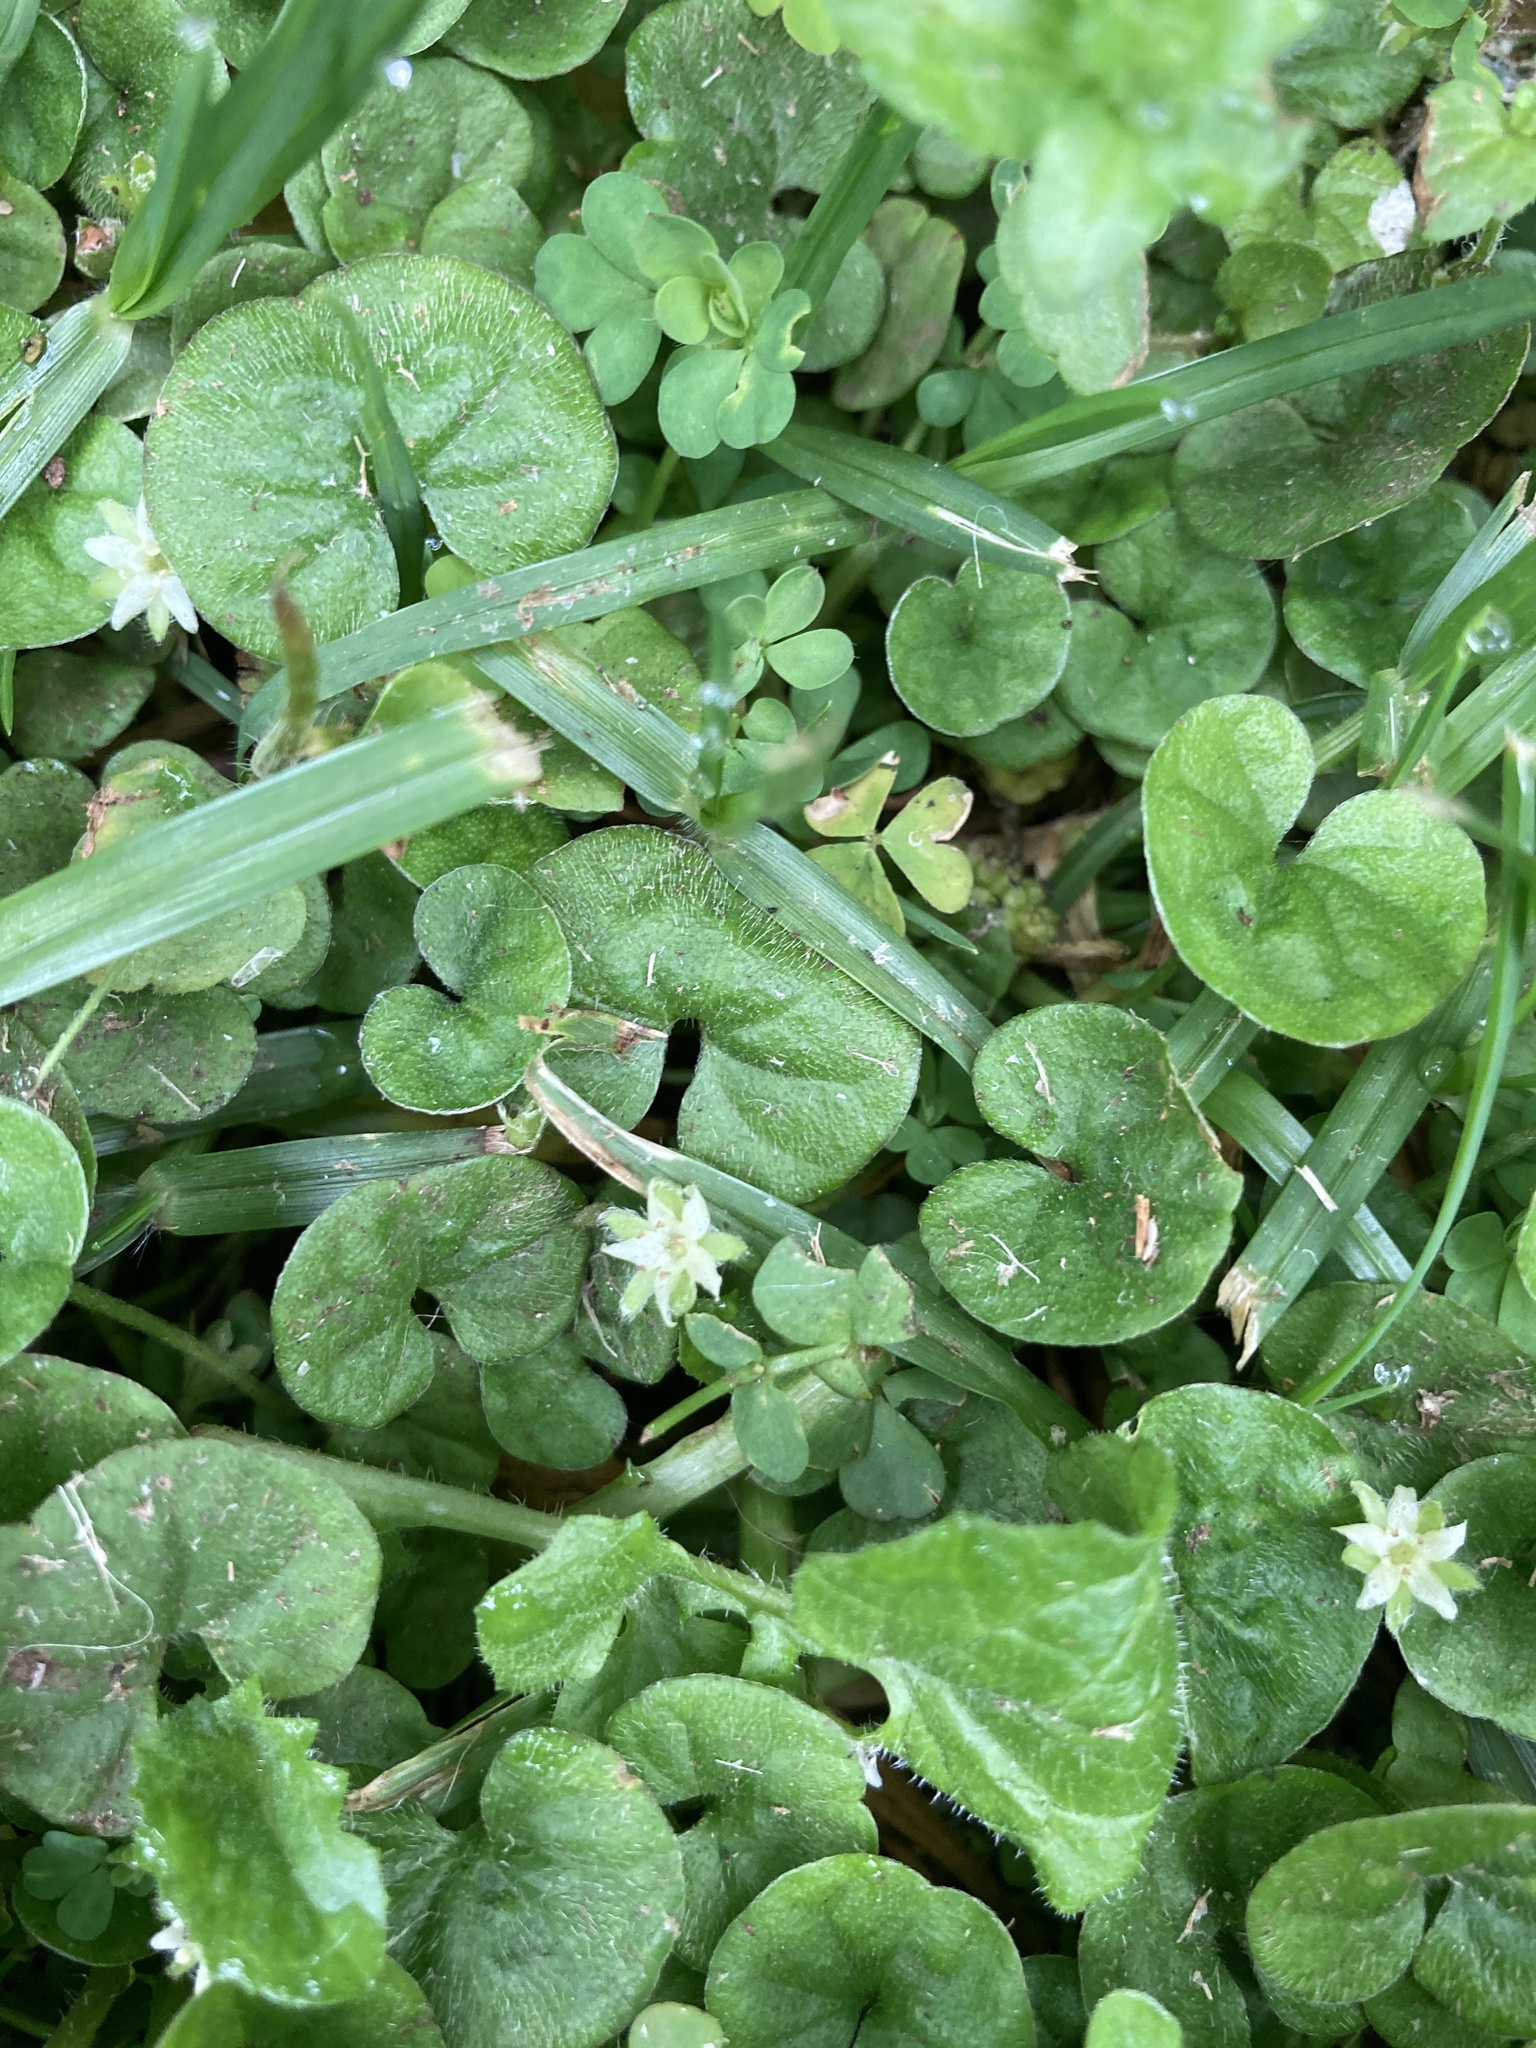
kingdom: Plantae
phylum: Tracheophyta
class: Magnoliopsida
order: Solanales
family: Convolvulaceae
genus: Dichondra
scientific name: Dichondra repens
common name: Kidneyweed
